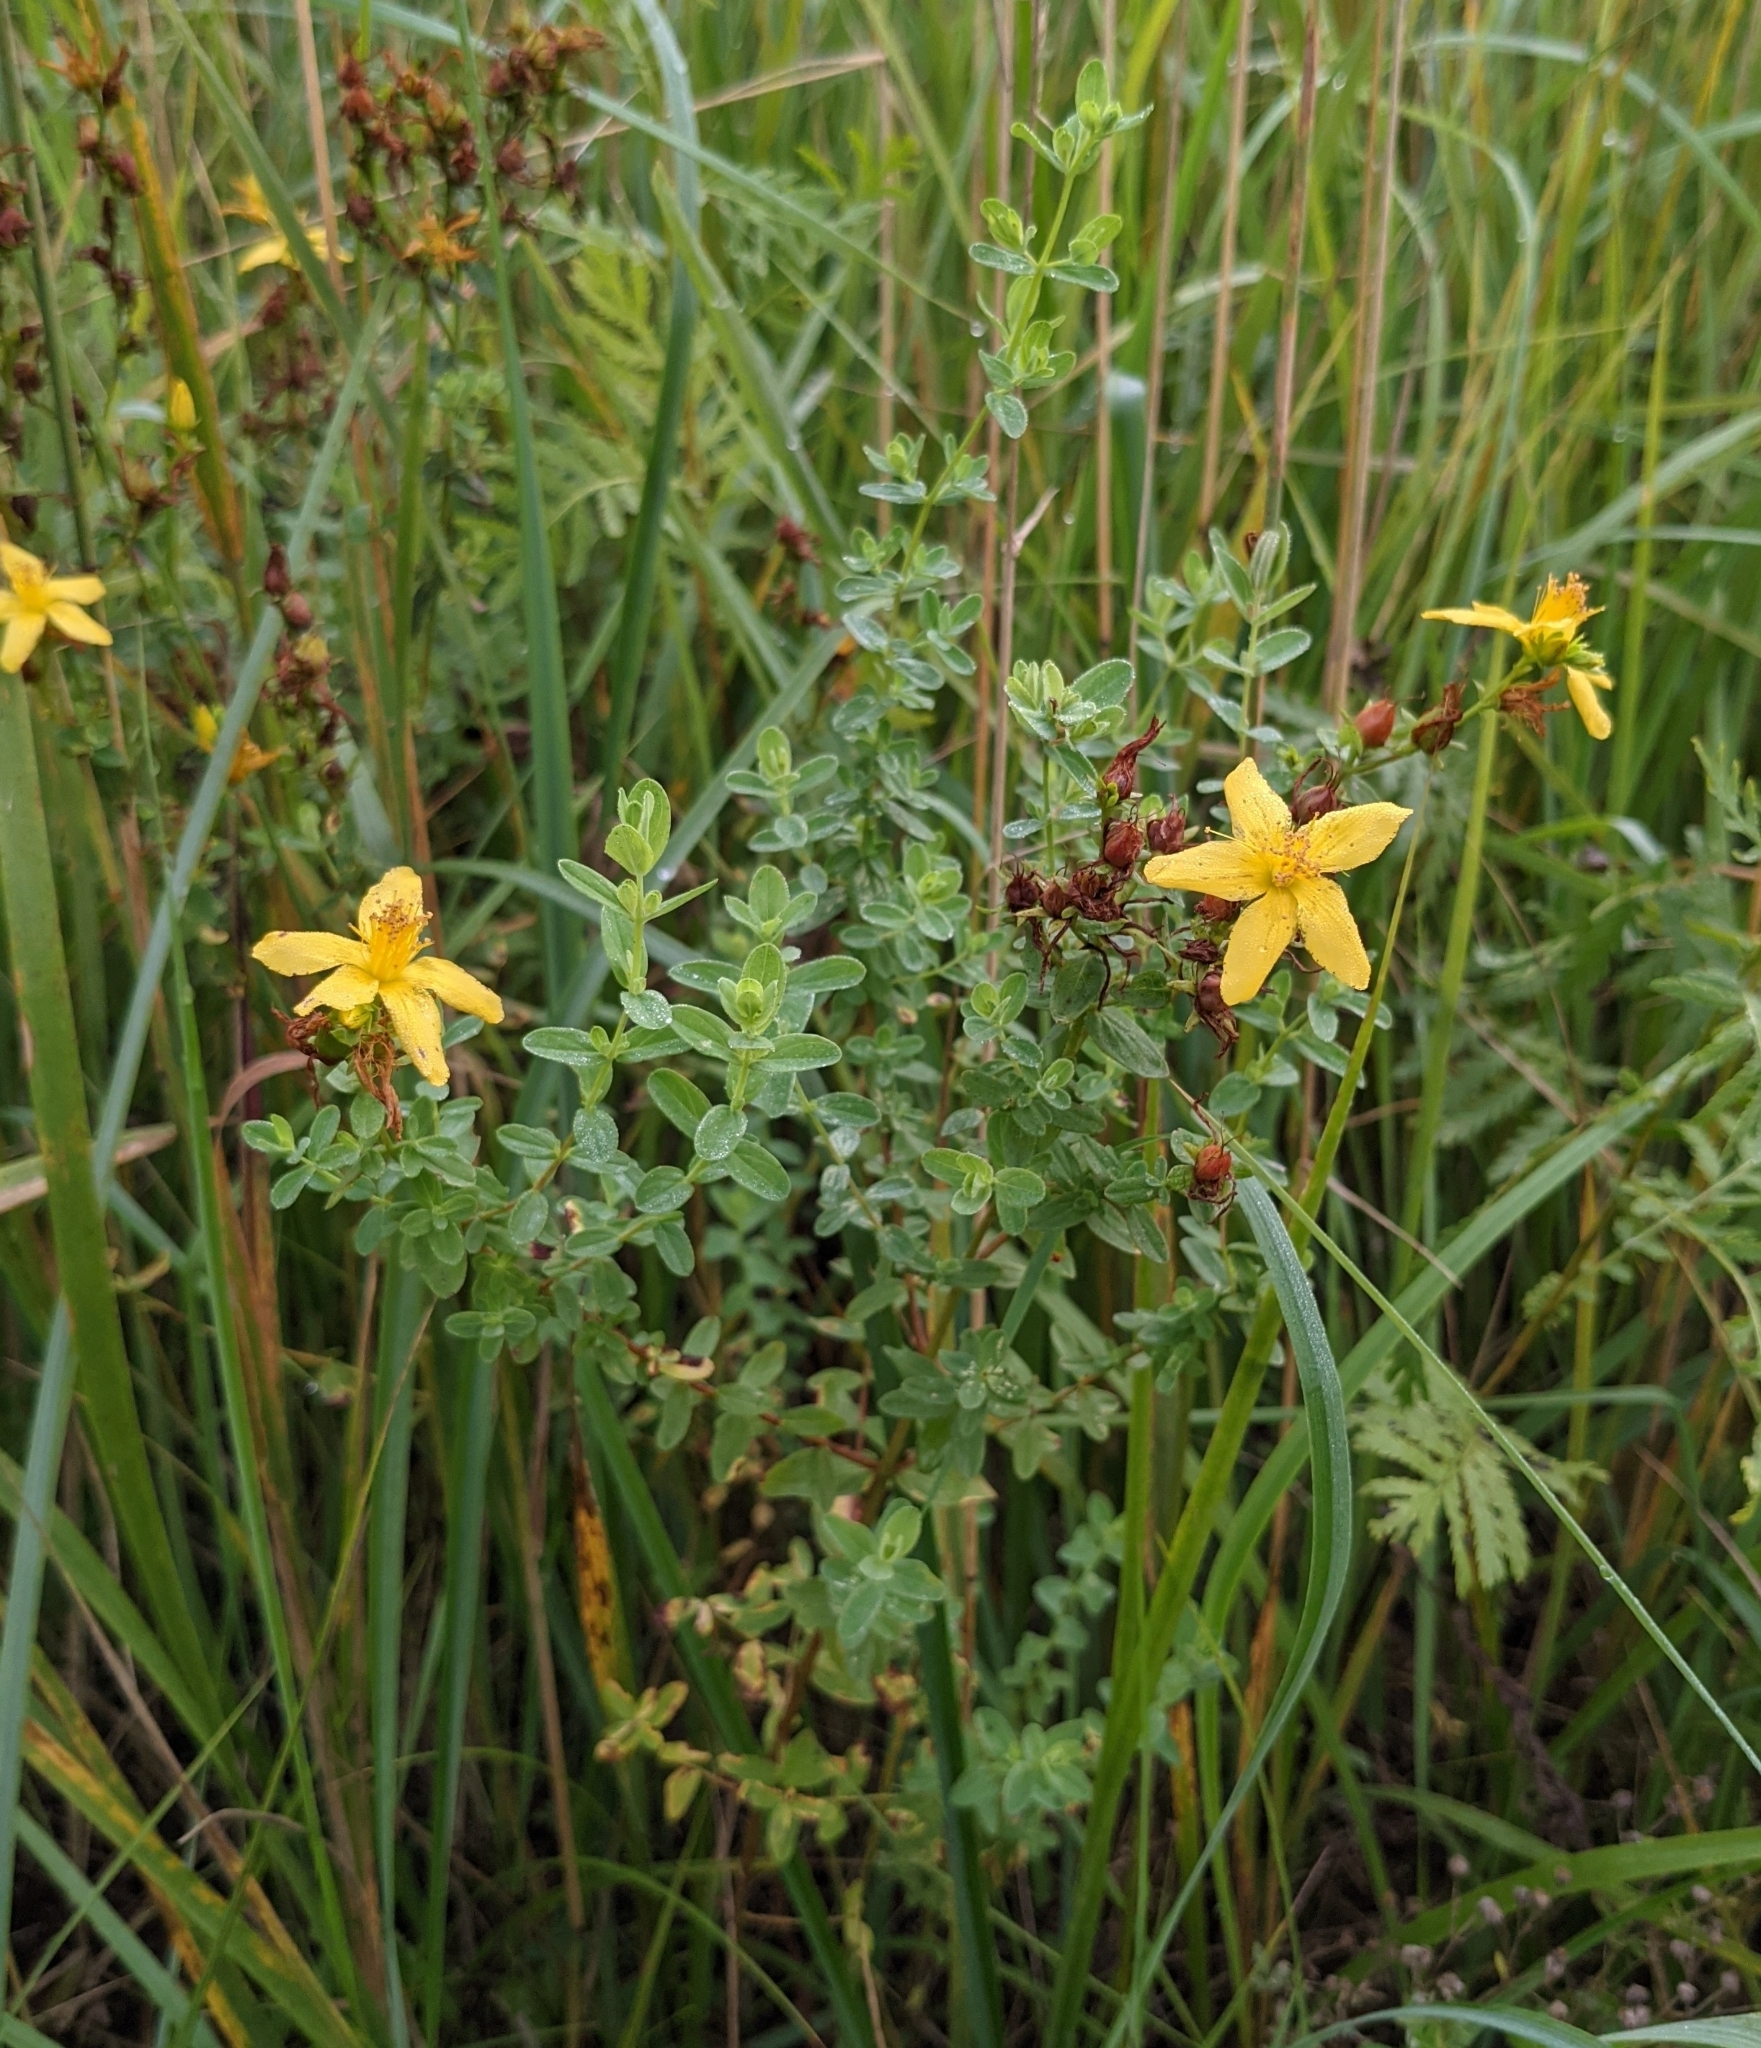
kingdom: Plantae
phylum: Tracheophyta
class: Magnoliopsida
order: Malpighiales
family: Hypericaceae
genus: Hypericum
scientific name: Hypericum perforatum
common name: Common st. johnswort
